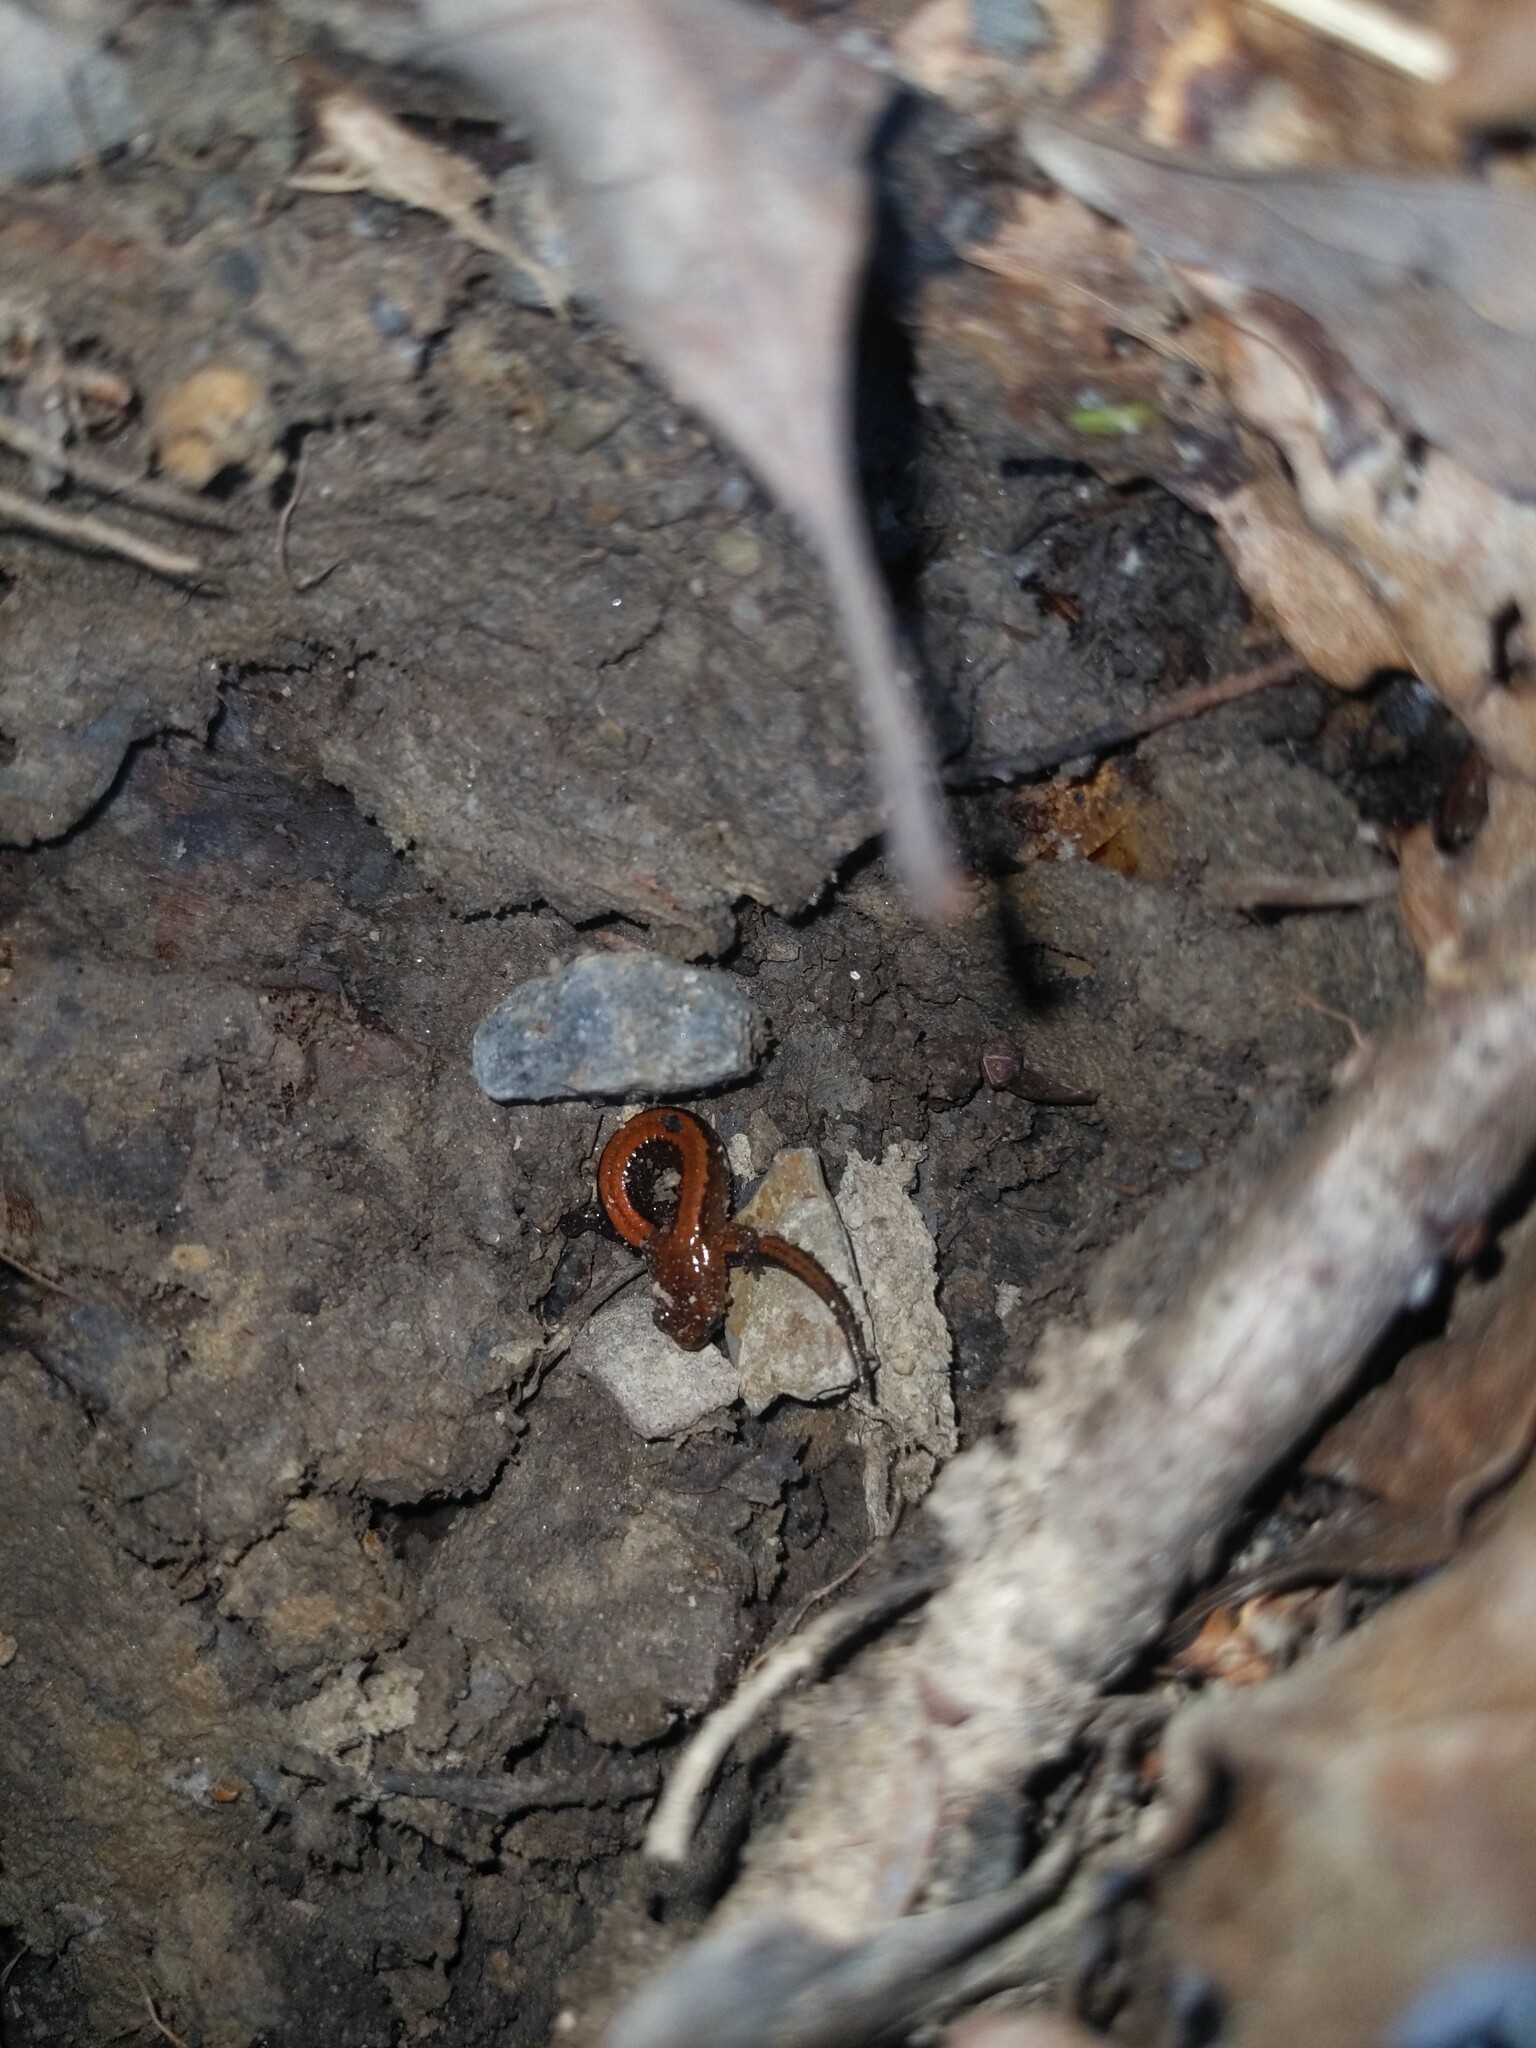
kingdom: Animalia
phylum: Chordata
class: Amphibia
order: Caudata
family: Plethodontidae
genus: Plethodon
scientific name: Plethodon cinereus
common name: Redback salamander
